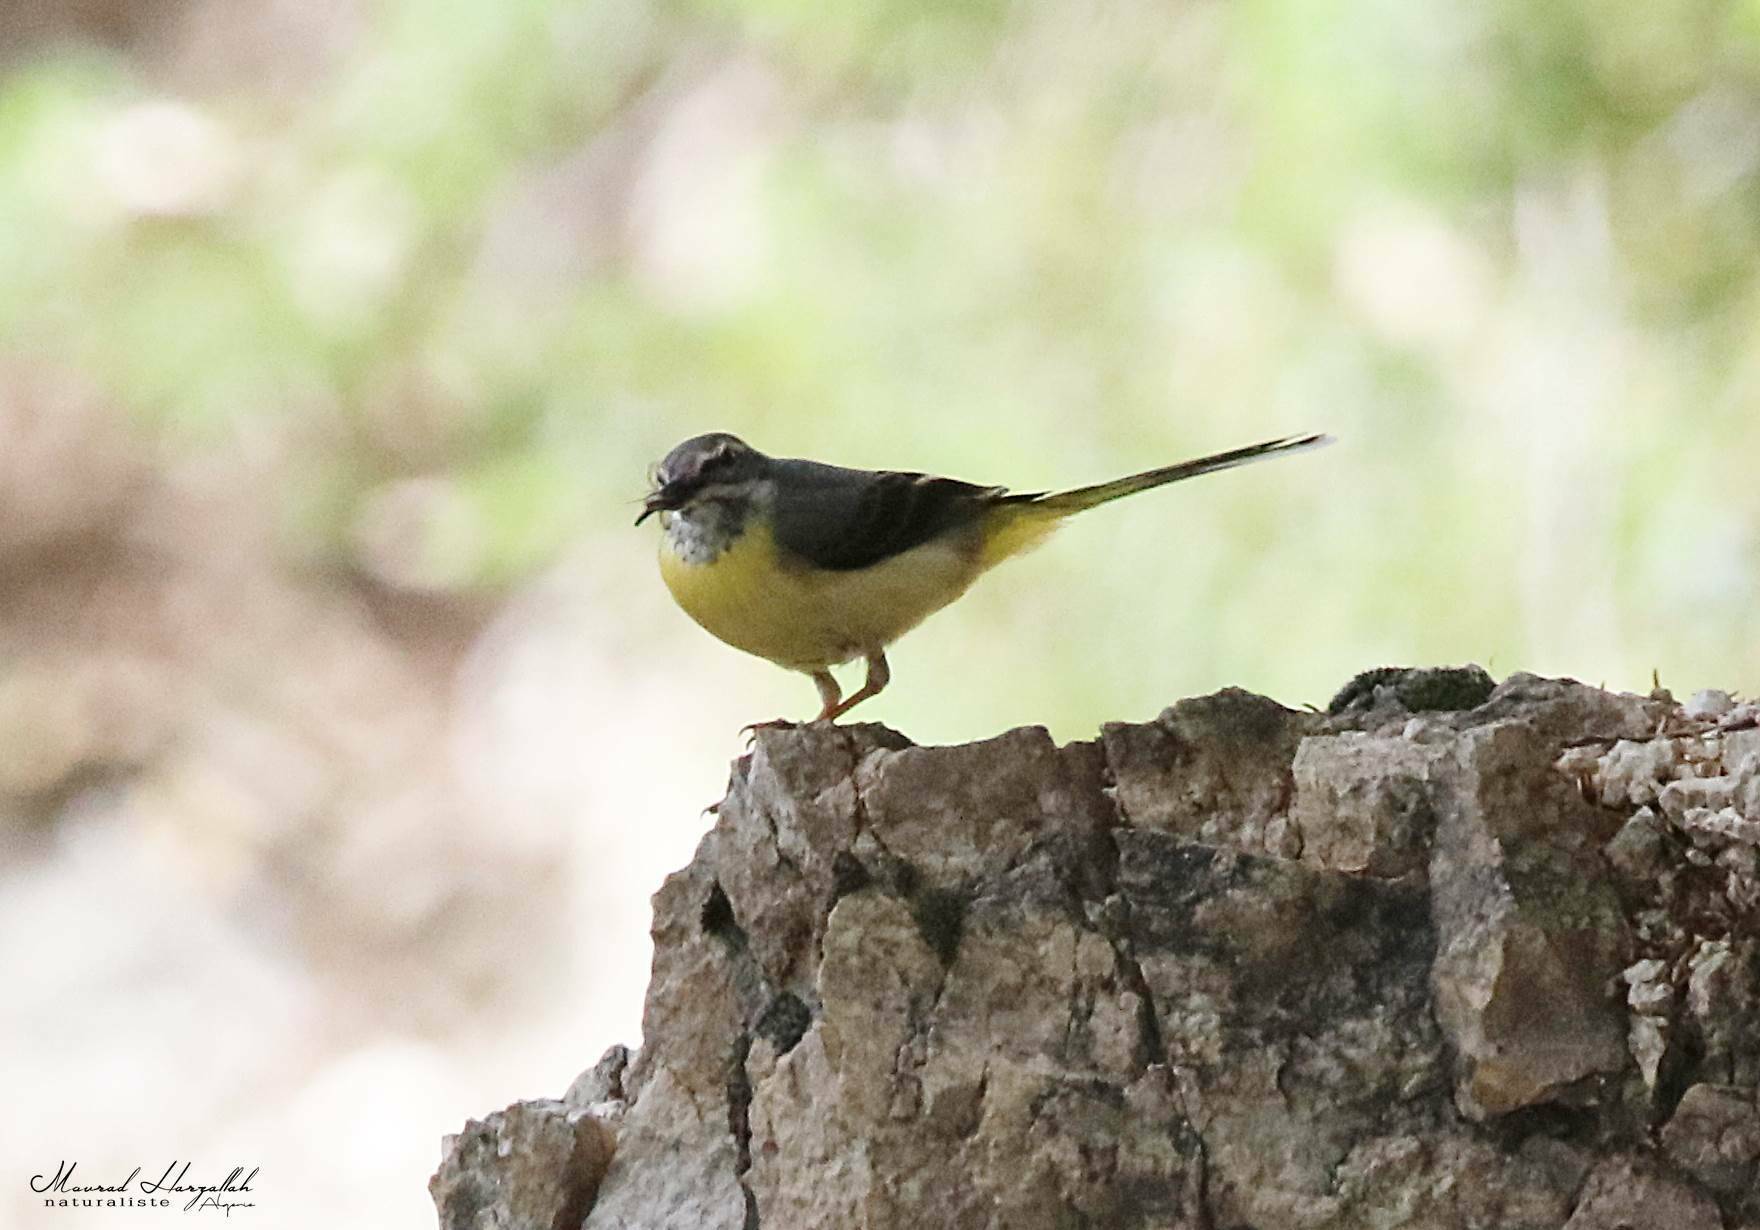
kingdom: Animalia
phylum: Chordata
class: Aves
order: Passeriformes
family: Motacillidae
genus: Motacilla
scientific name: Motacilla cinerea
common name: Grey wagtail
